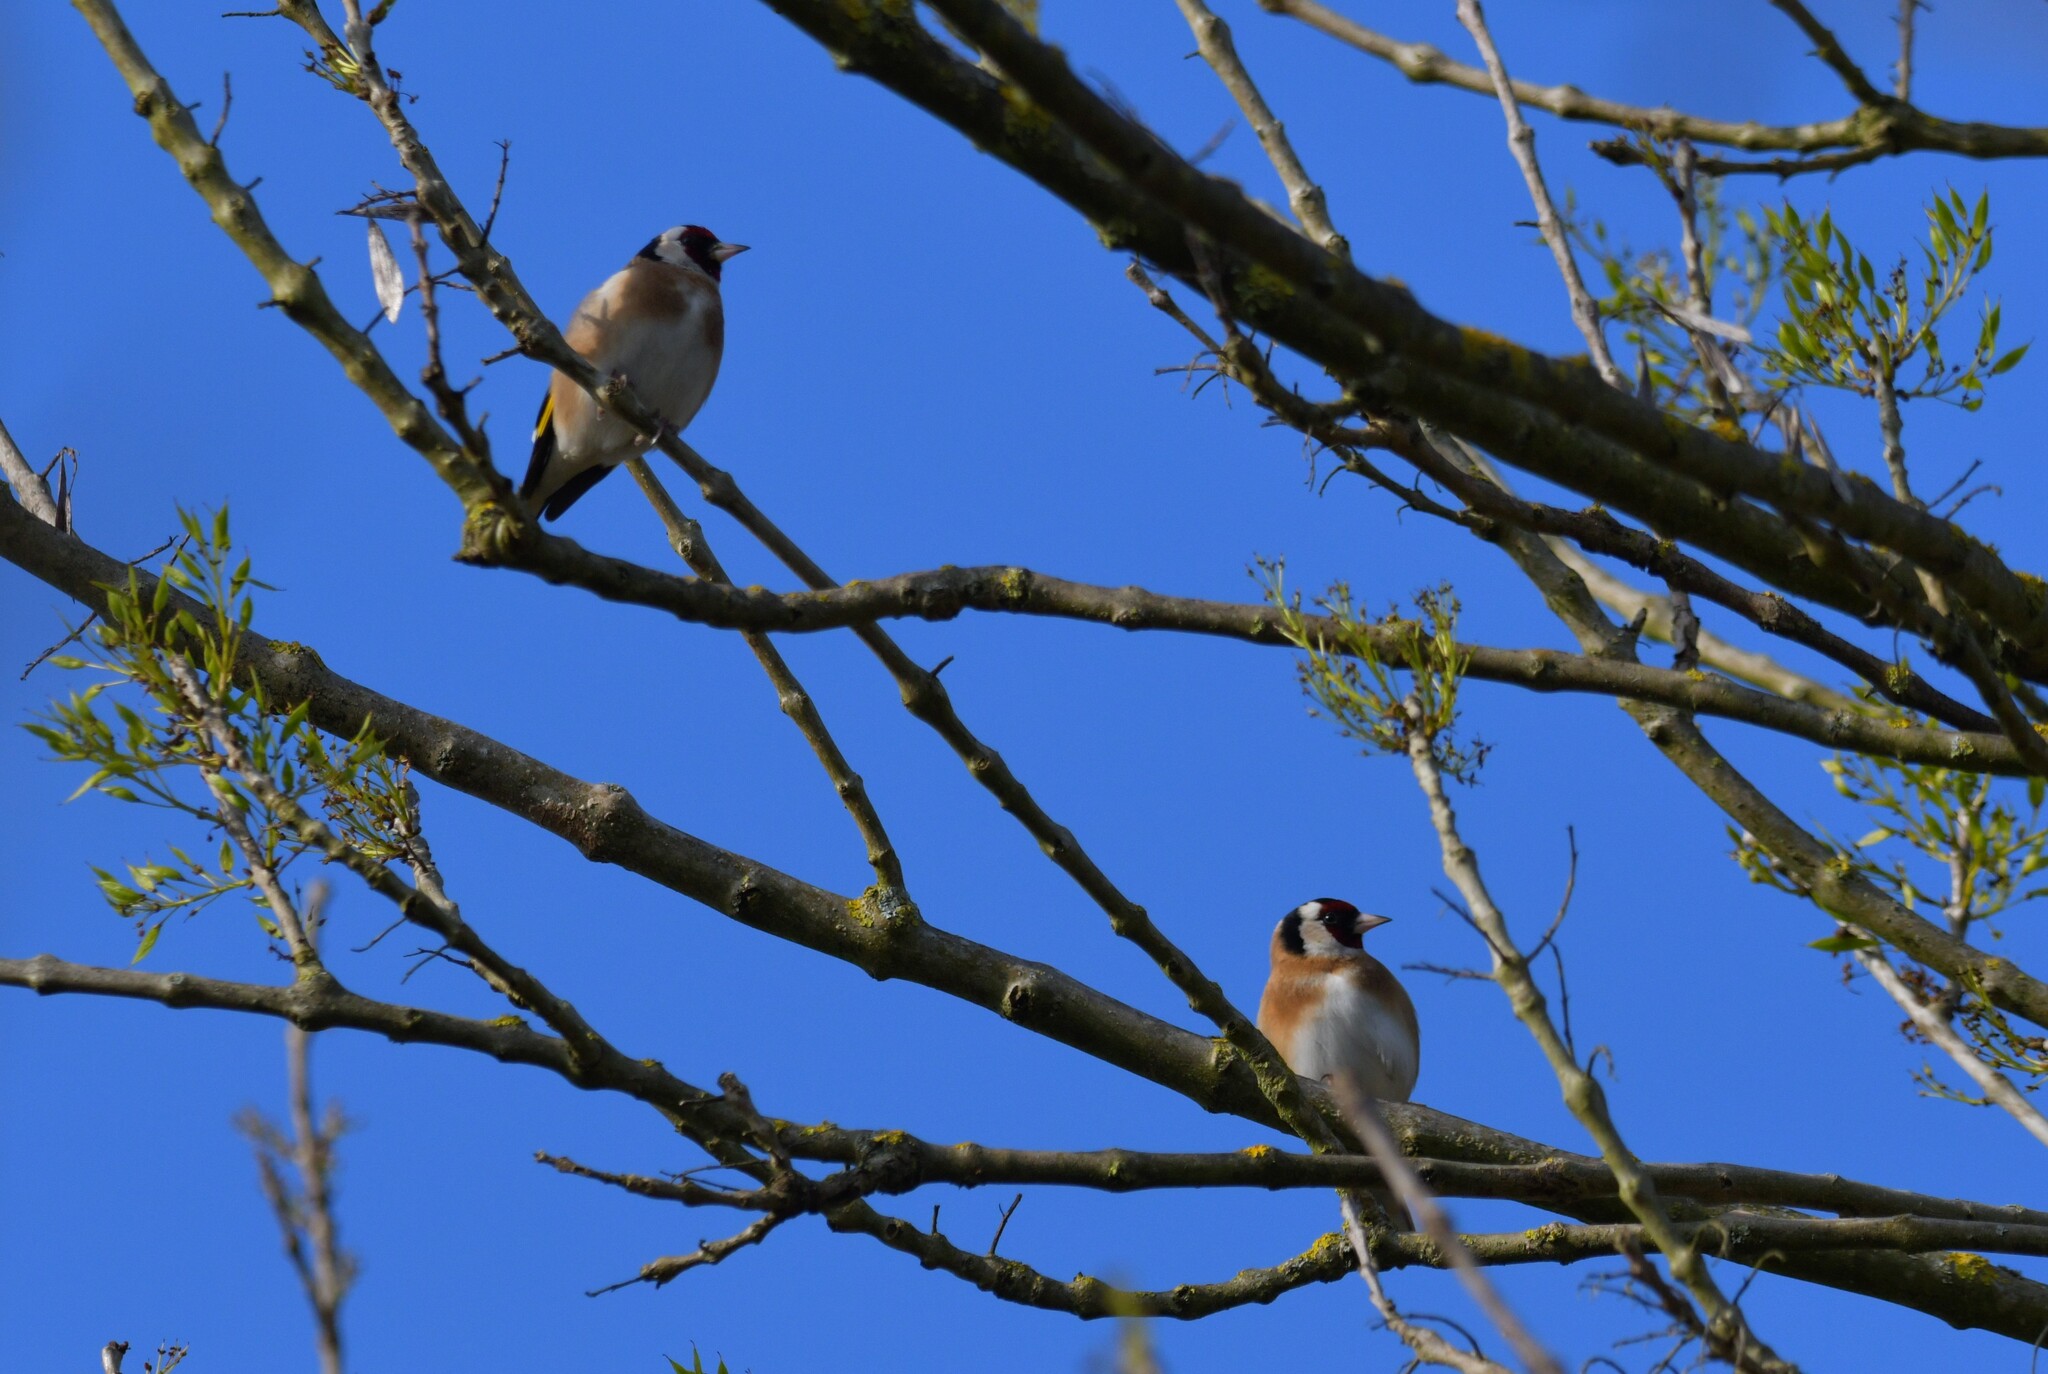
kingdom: Animalia
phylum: Chordata
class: Aves
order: Passeriformes
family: Fringillidae
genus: Carduelis
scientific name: Carduelis carduelis
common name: European goldfinch
